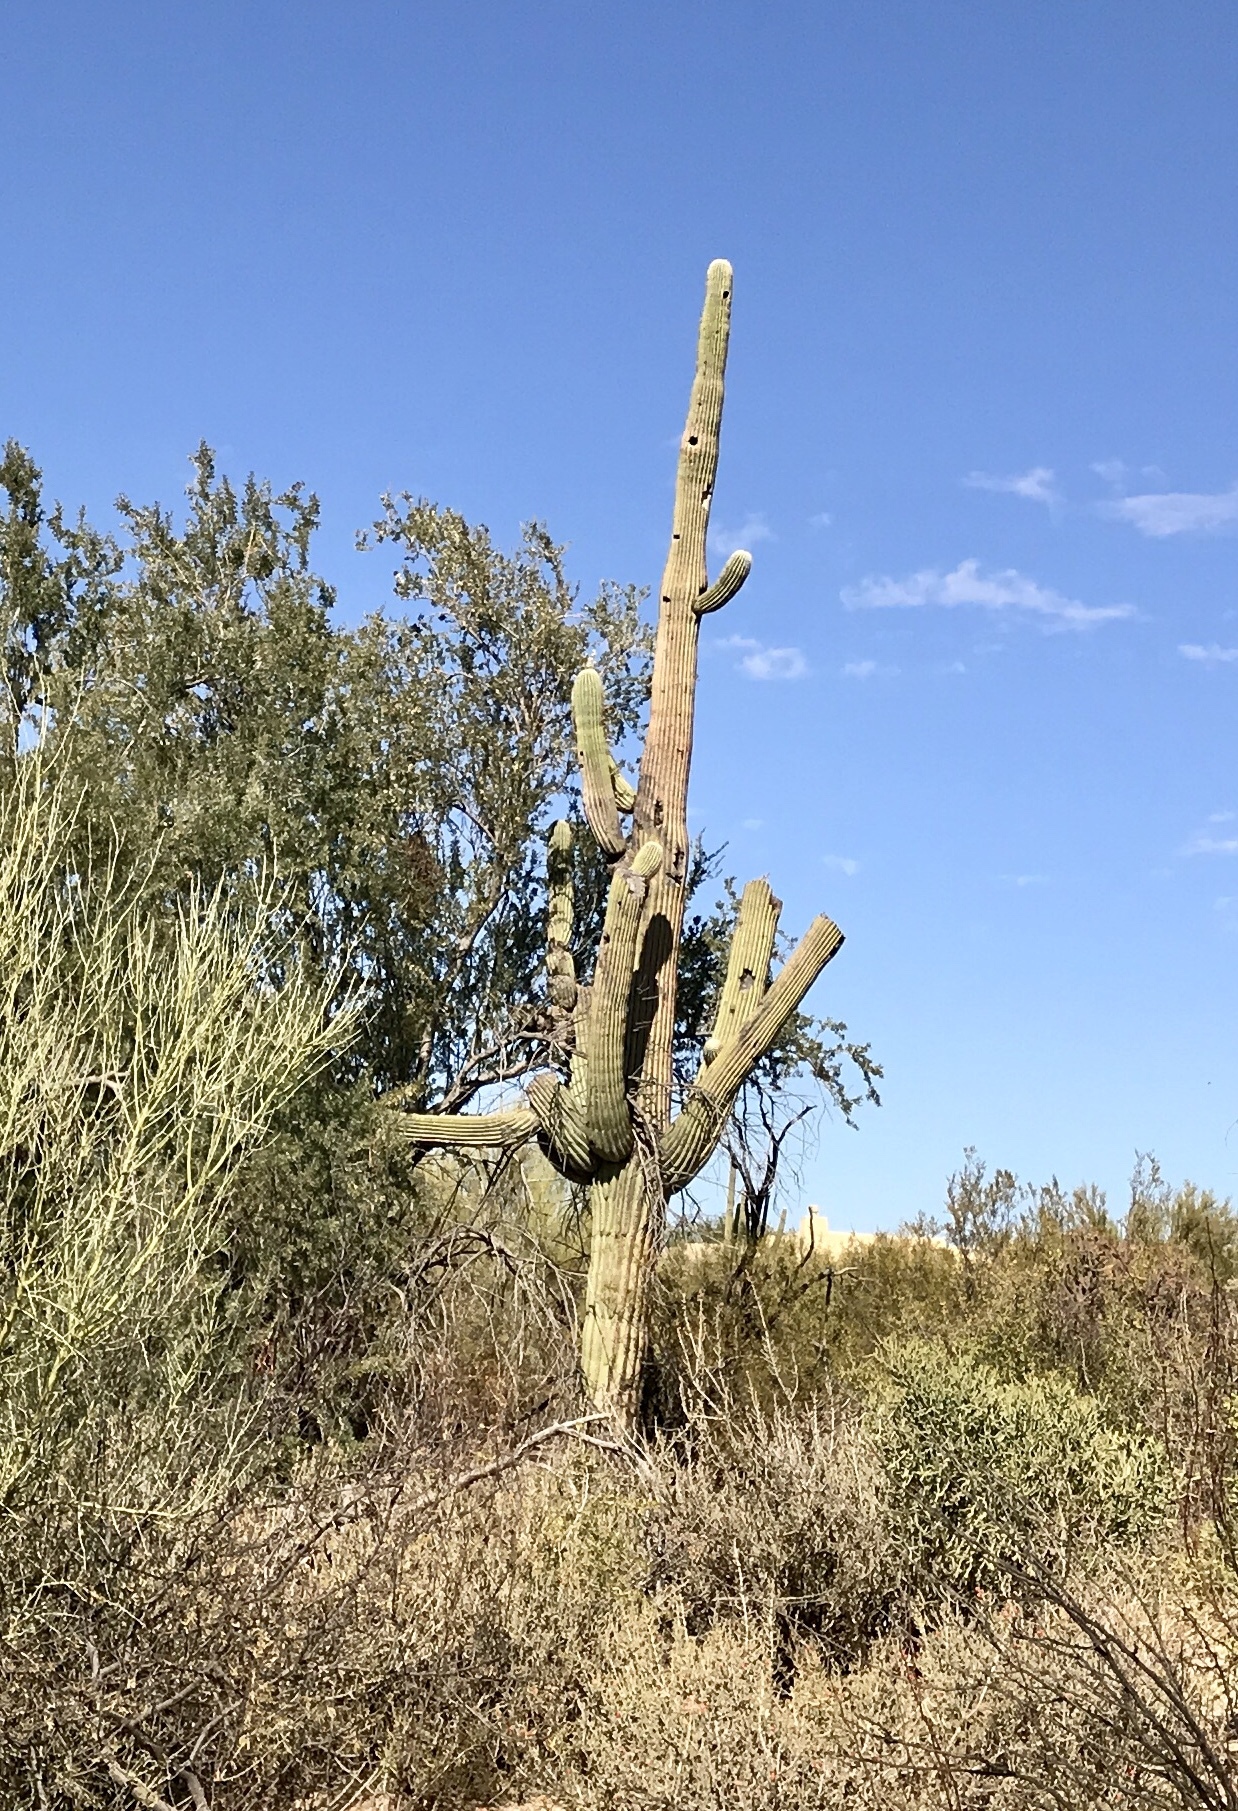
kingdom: Plantae
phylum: Tracheophyta
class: Magnoliopsida
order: Caryophyllales
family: Cactaceae
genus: Carnegiea
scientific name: Carnegiea gigantea
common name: Saguaro
